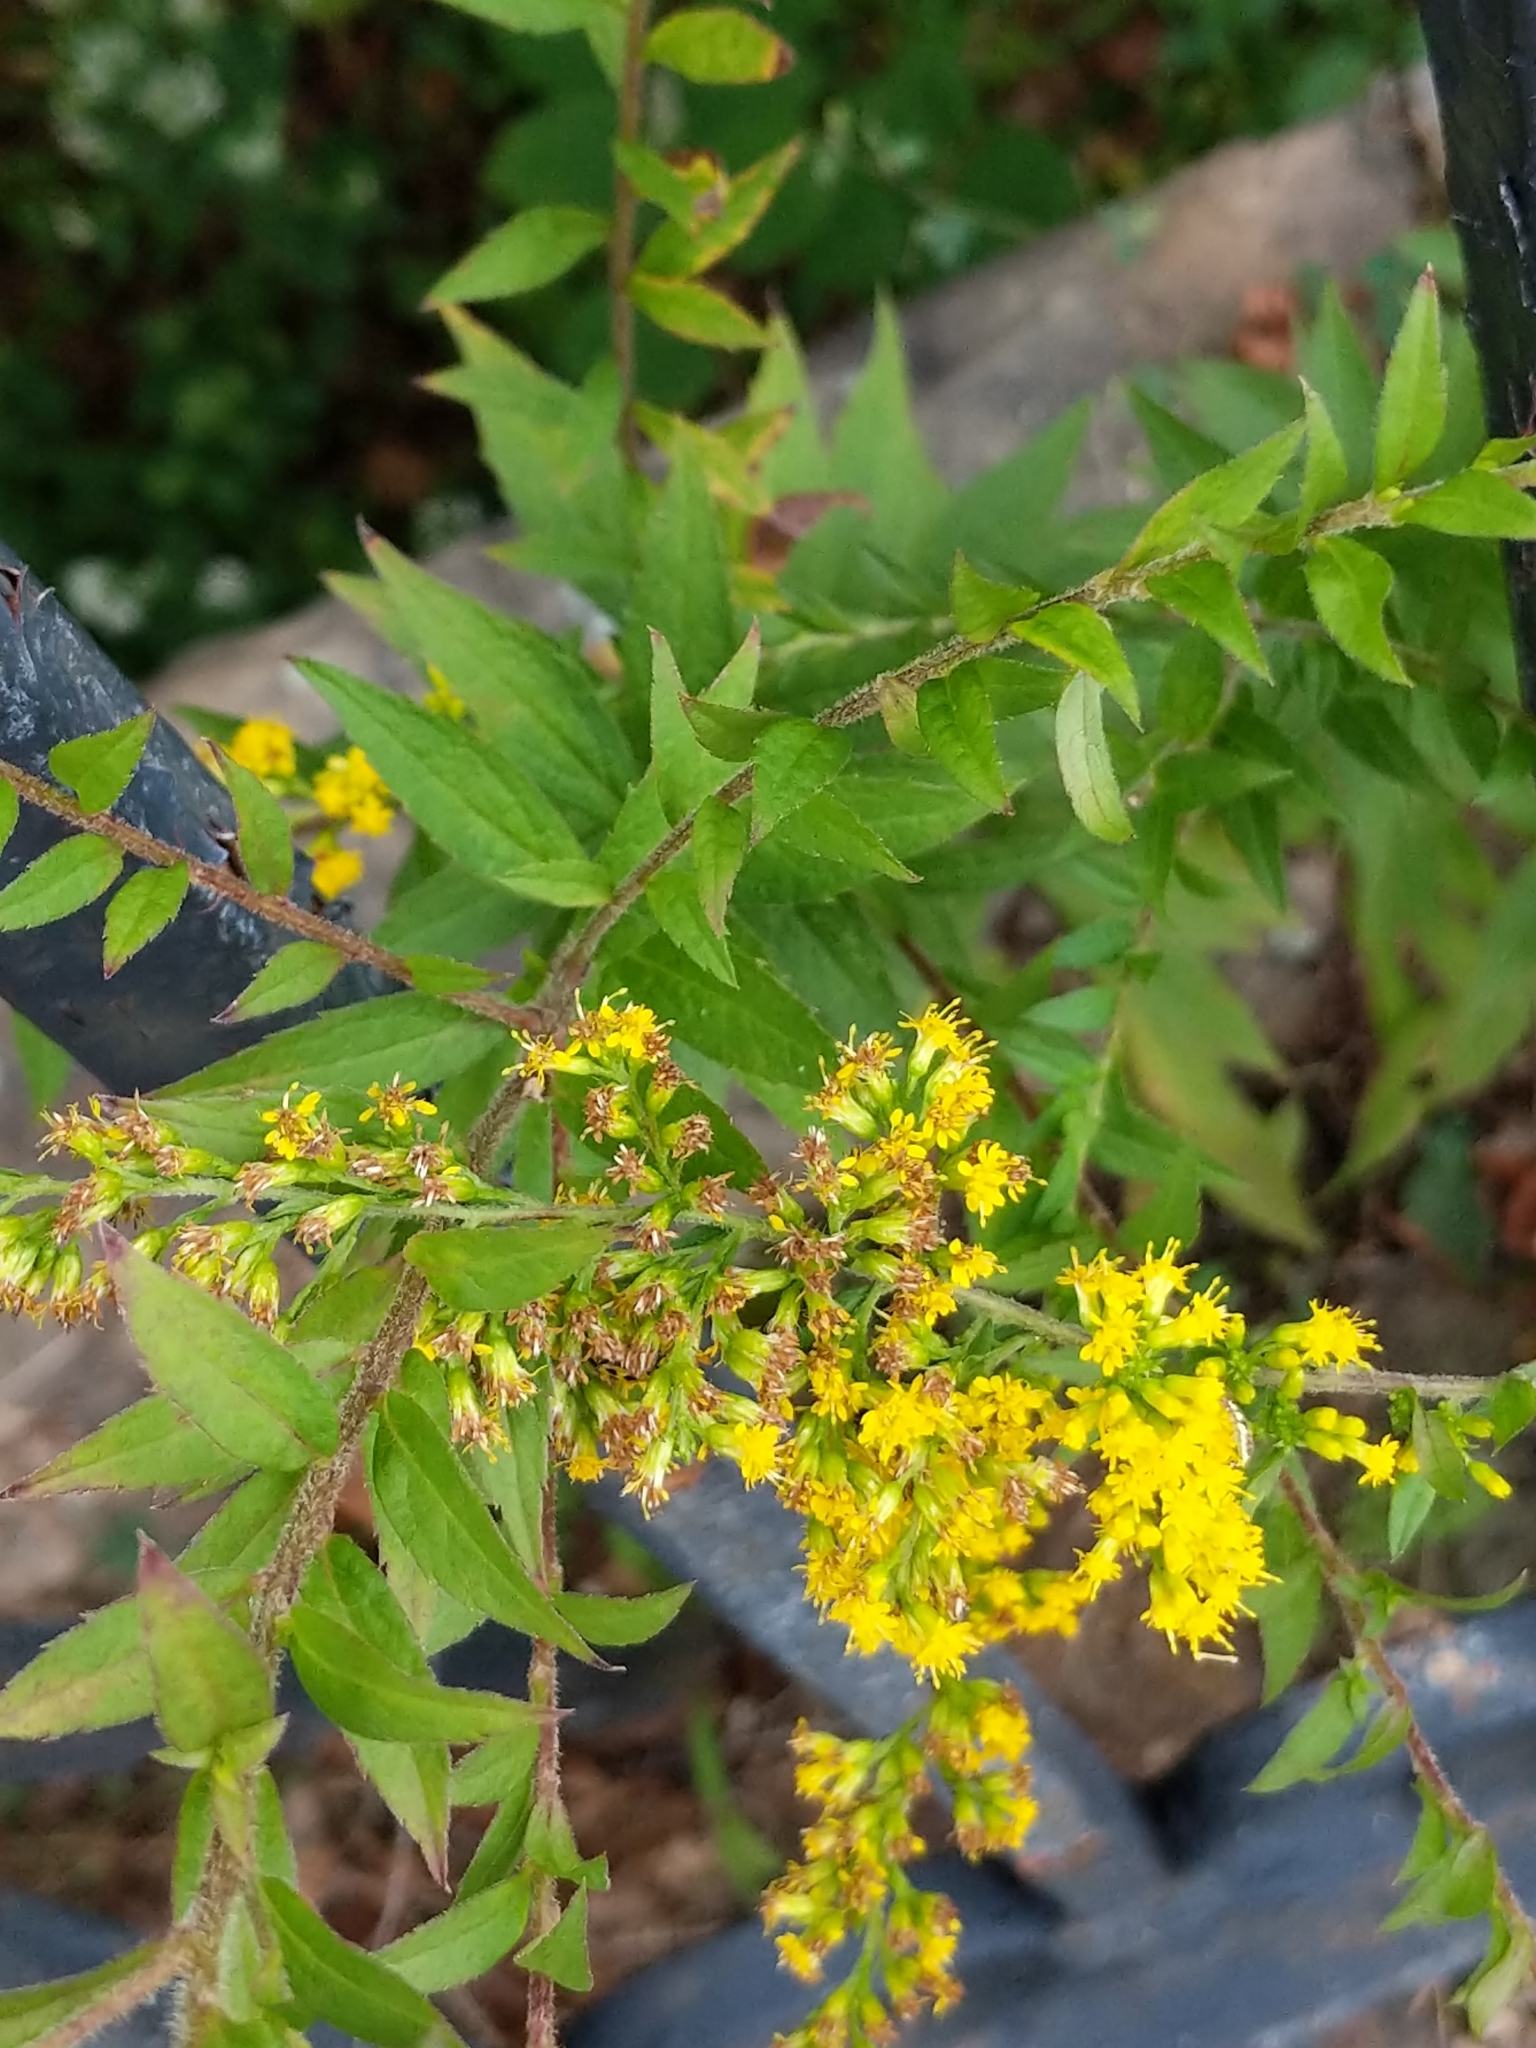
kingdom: Plantae
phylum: Tracheophyta
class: Magnoliopsida
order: Asterales
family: Asteraceae
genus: Solidago
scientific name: Solidago rugosa
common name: Rough-stemmed goldenrod
